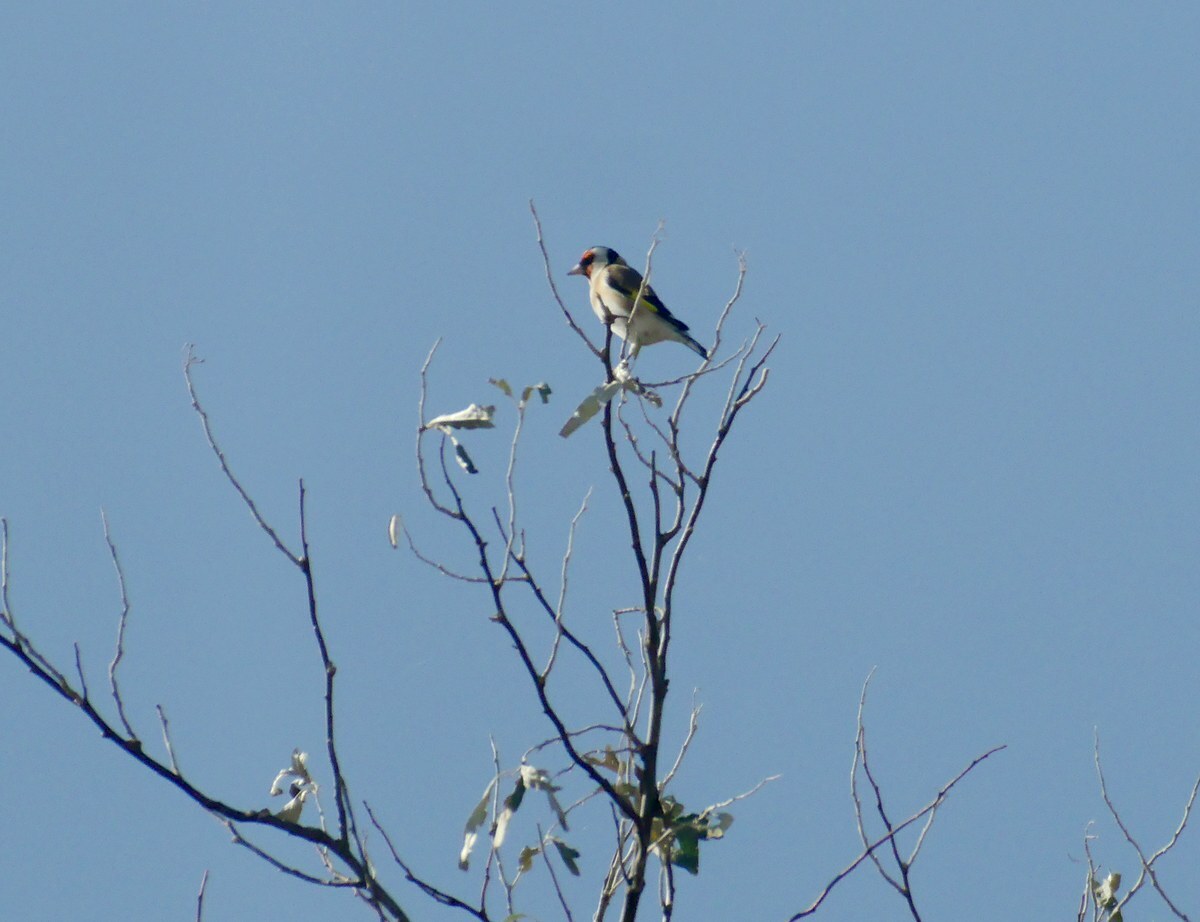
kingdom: Animalia
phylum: Chordata
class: Aves
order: Passeriformes
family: Fringillidae
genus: Carduelis
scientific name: Carduelis carduelis
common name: European goldfinch
